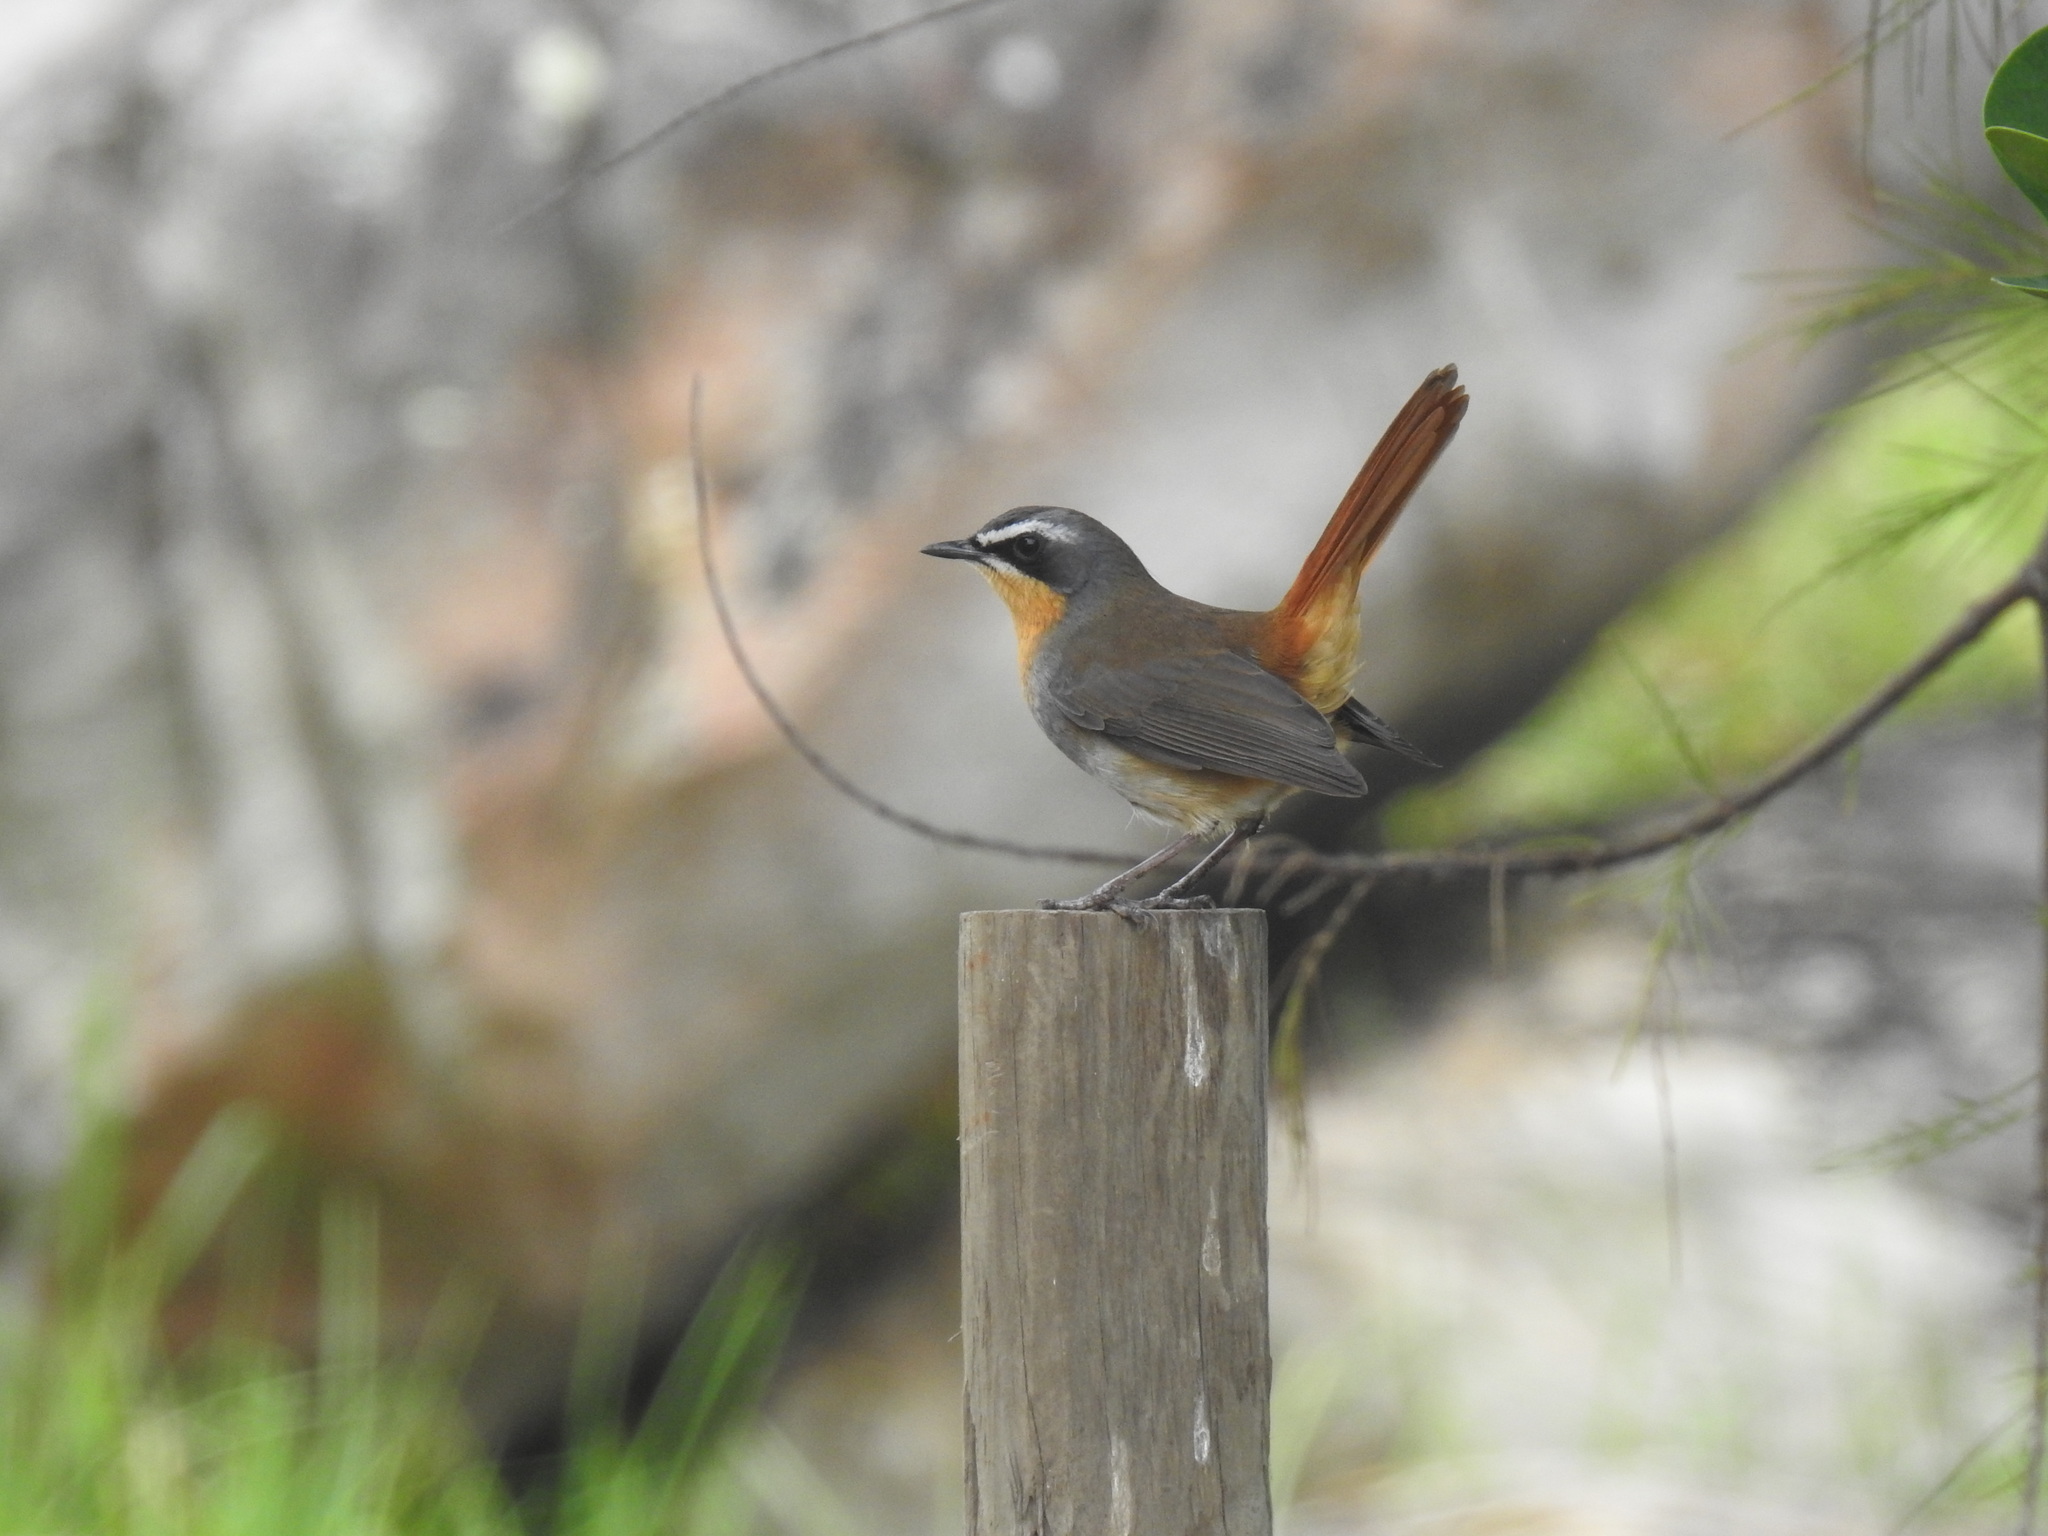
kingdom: Animalia
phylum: Chordata
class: Aves
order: Passeriformes
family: Muscicapidae
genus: Cossypha
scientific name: Cossypha caffra
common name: Cape robin-chat
